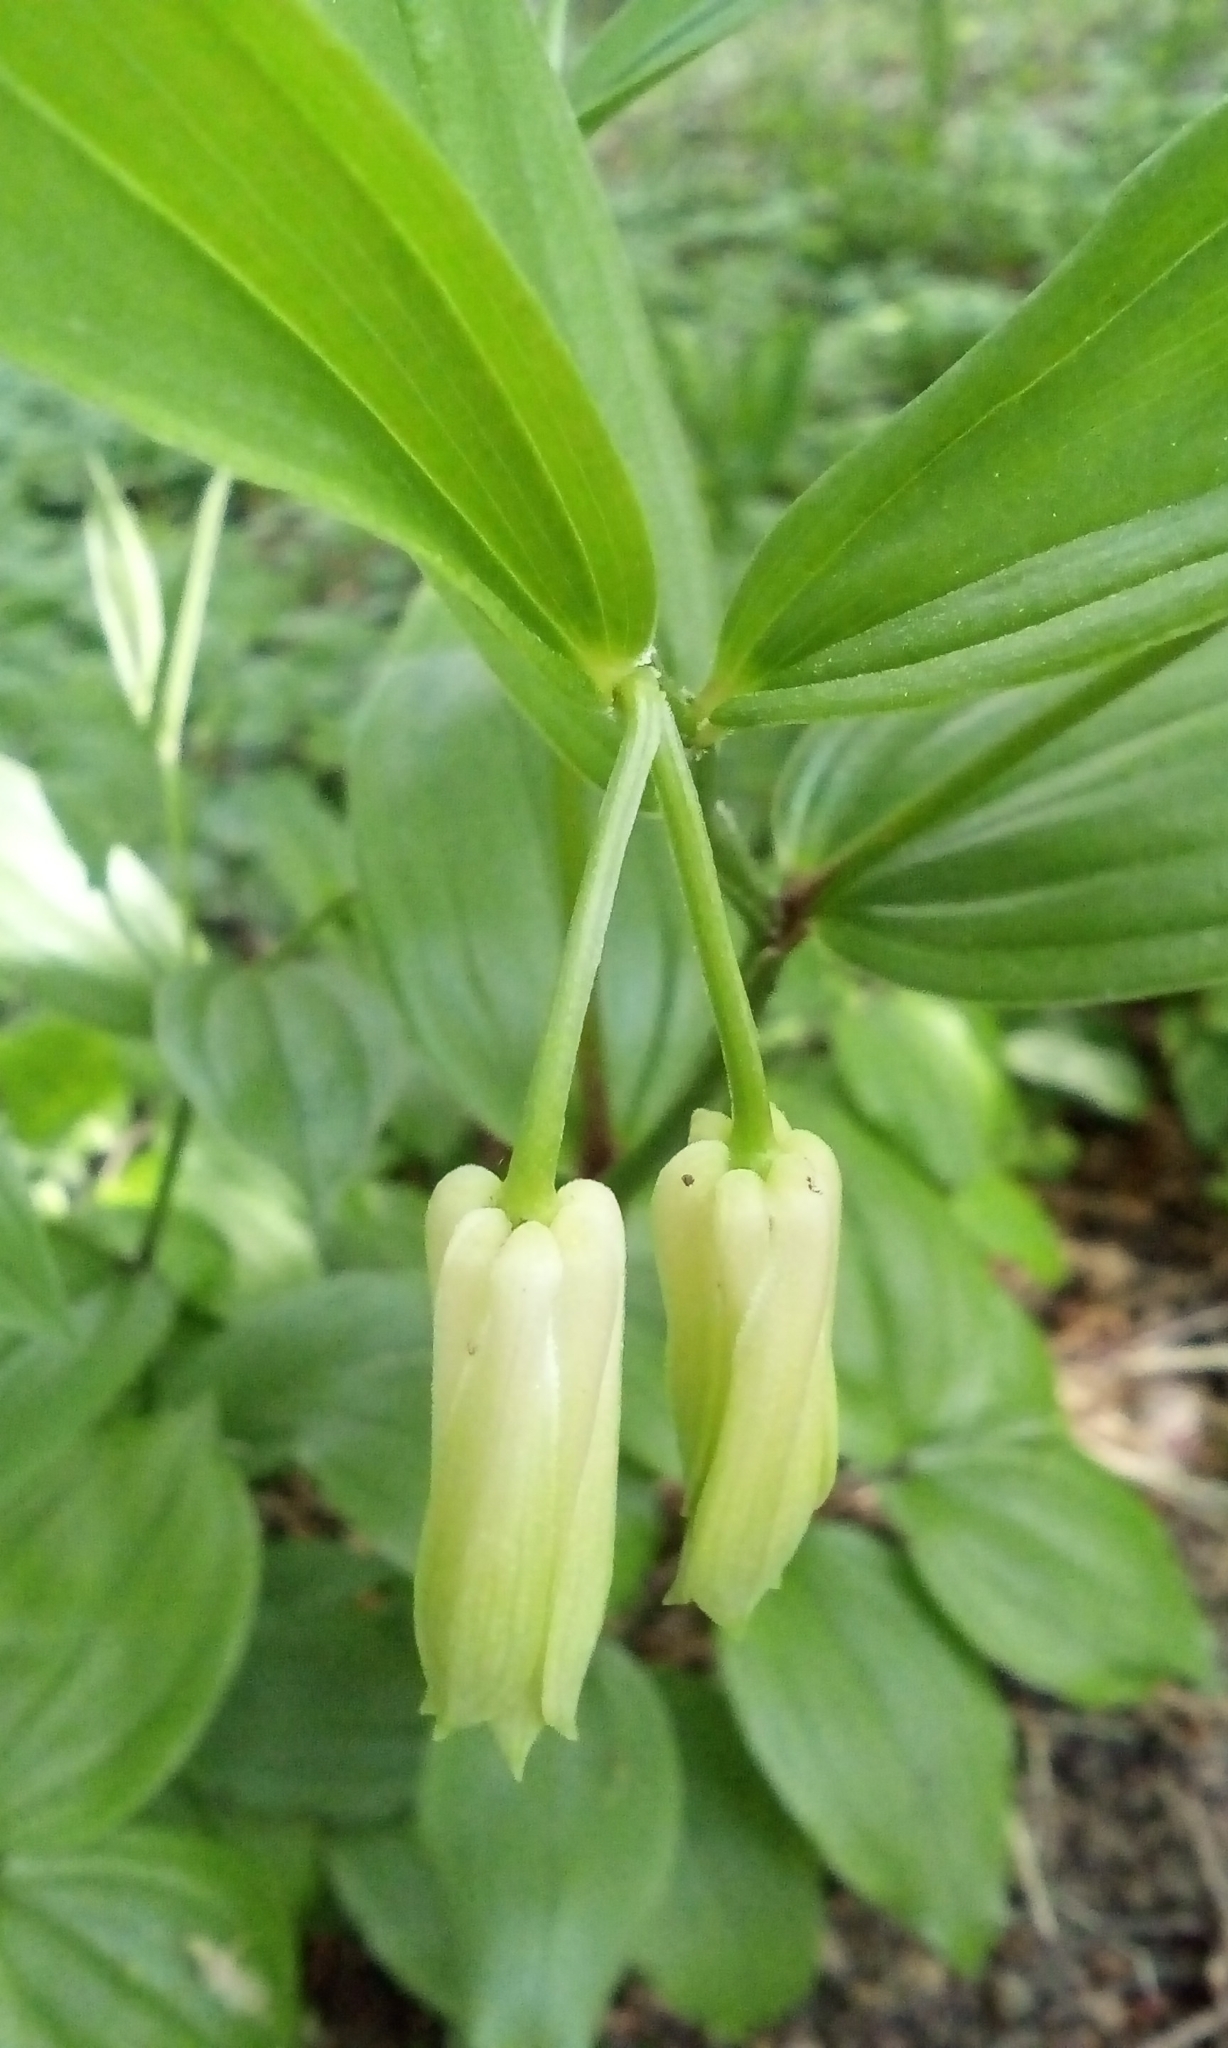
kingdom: Plantae
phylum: Tracheophyta
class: Liliopsida
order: Liliales
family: Colchicaceae
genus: Disporum
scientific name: Disporum sessile
